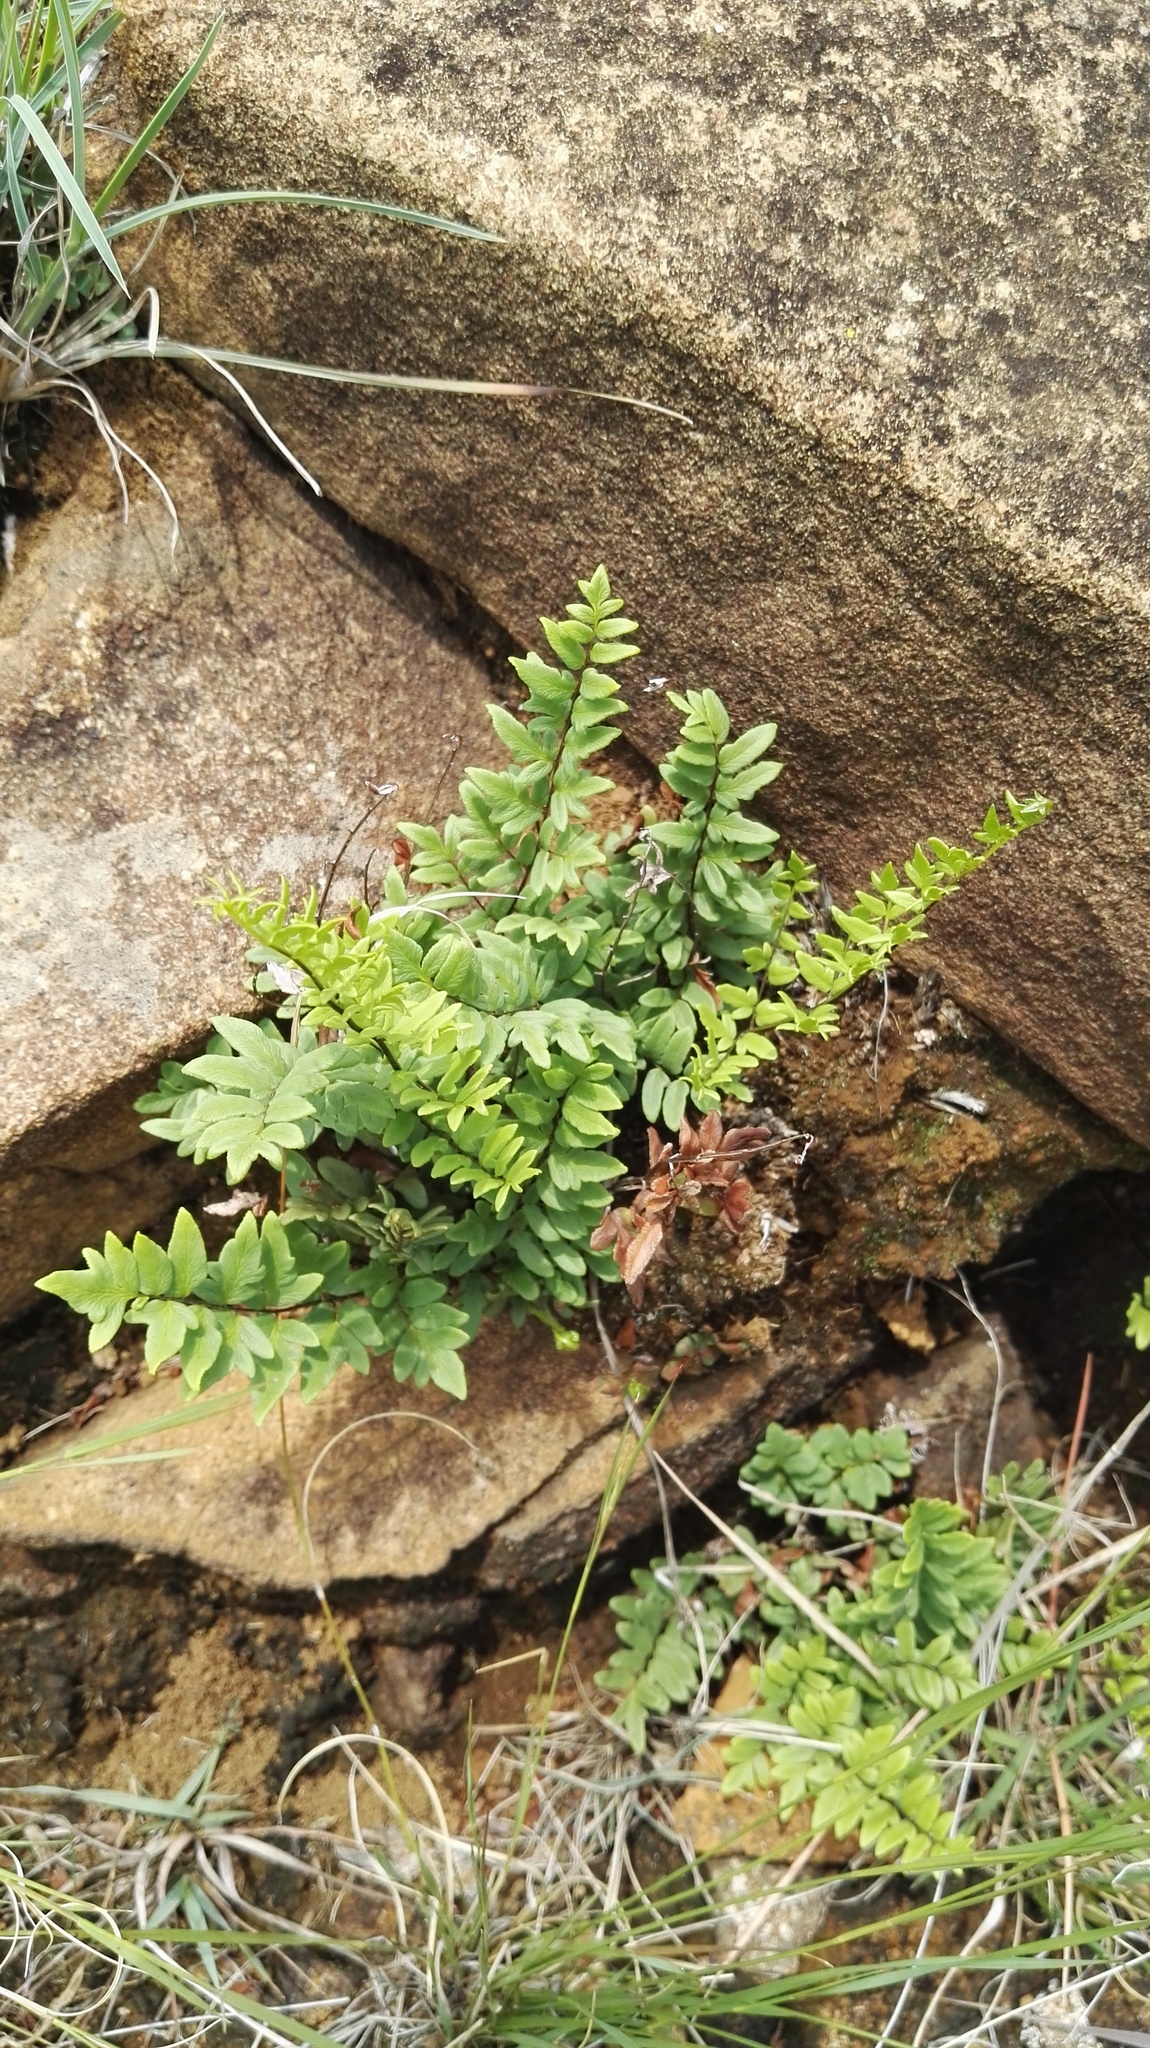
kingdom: Plantae
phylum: Tracheophyta
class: Polypodiopsida
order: Polypodiales
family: Pteridaceae
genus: Cheilanthes
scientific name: Cheilanthes viridis
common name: Green cliffbrake
